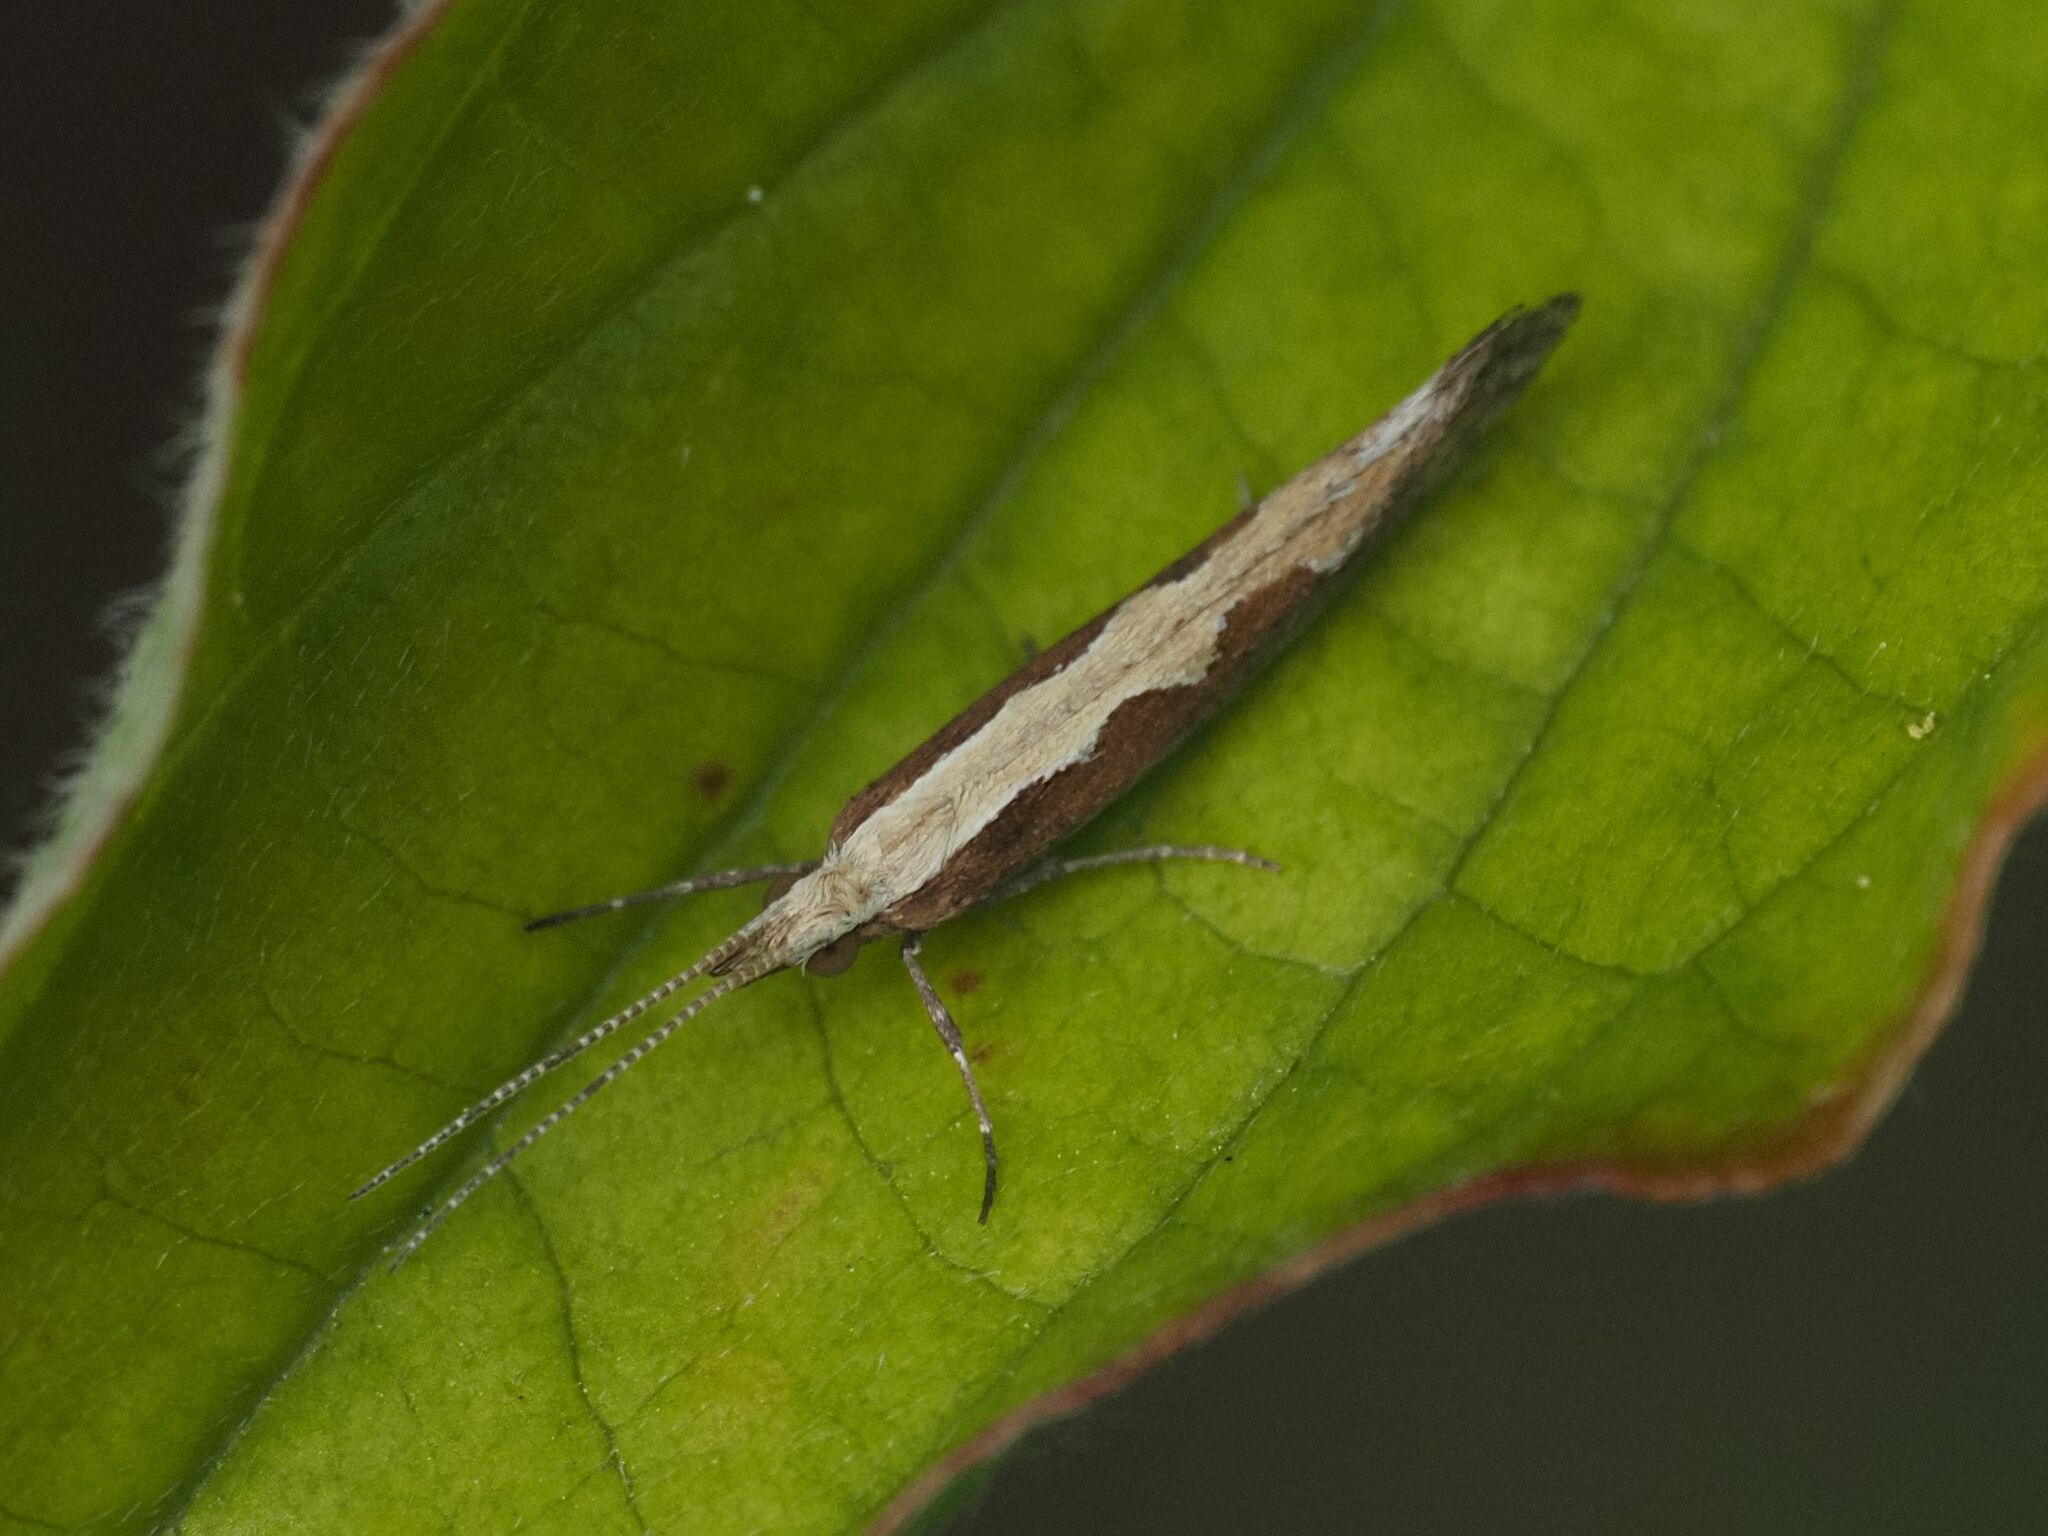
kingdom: Animalia
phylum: Arthropoda
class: Insecta
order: Lepidoptera
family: Plutellidae
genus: Plutella
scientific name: Plutella xylostella
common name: Diamond-back moth
